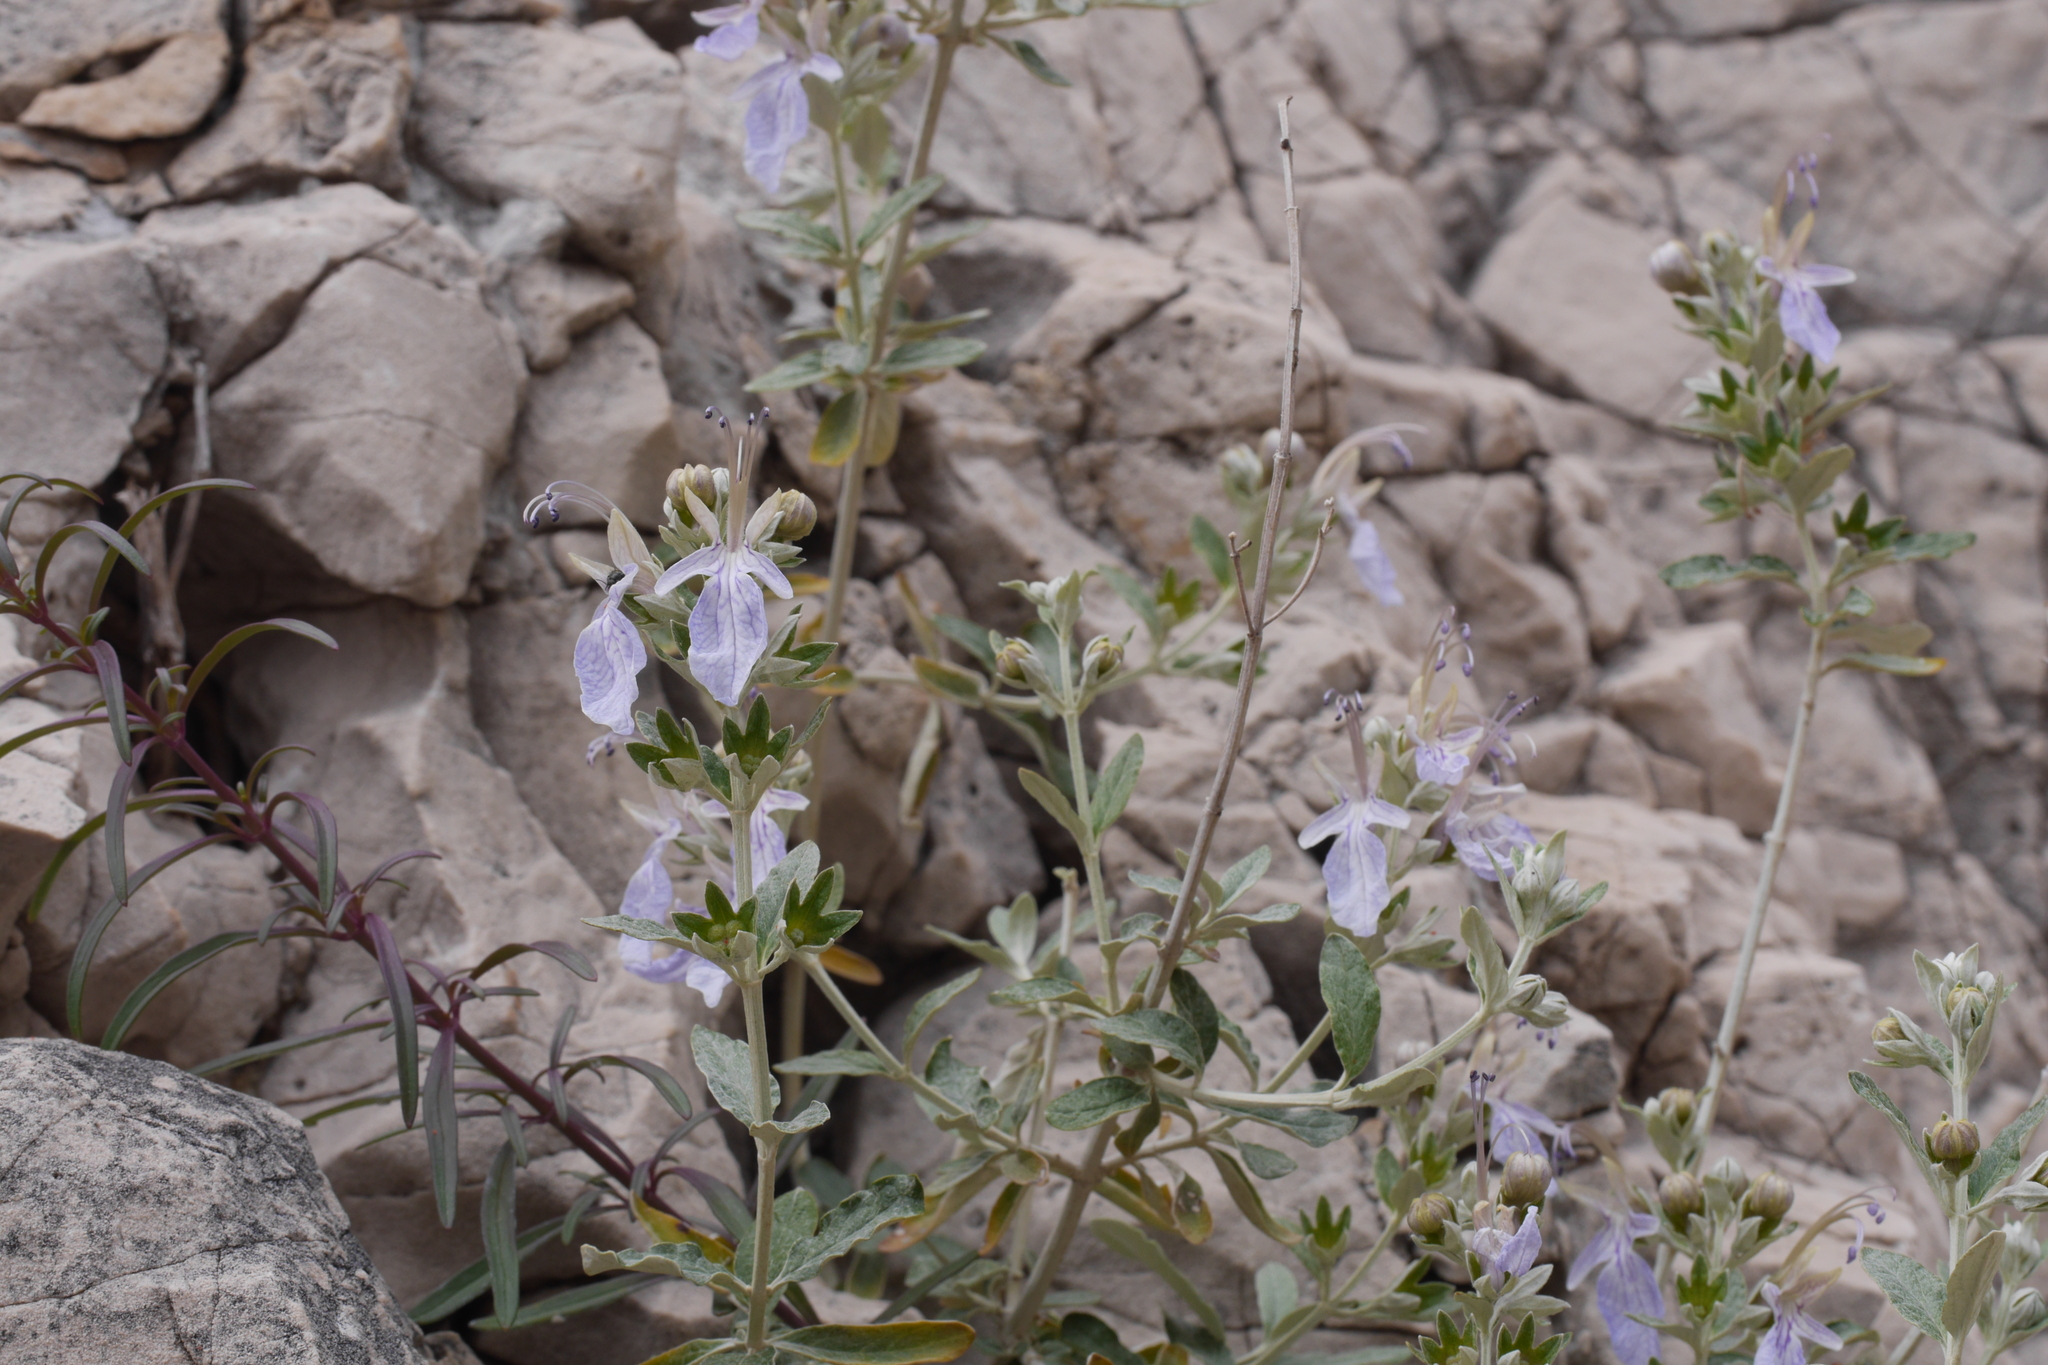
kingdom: Plantae
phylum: Tracheophyta
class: Magnoliopsida
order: Lamiales
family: Lamiaceae
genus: Teucrium
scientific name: Teucrium fruticans
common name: Shrubby germander
